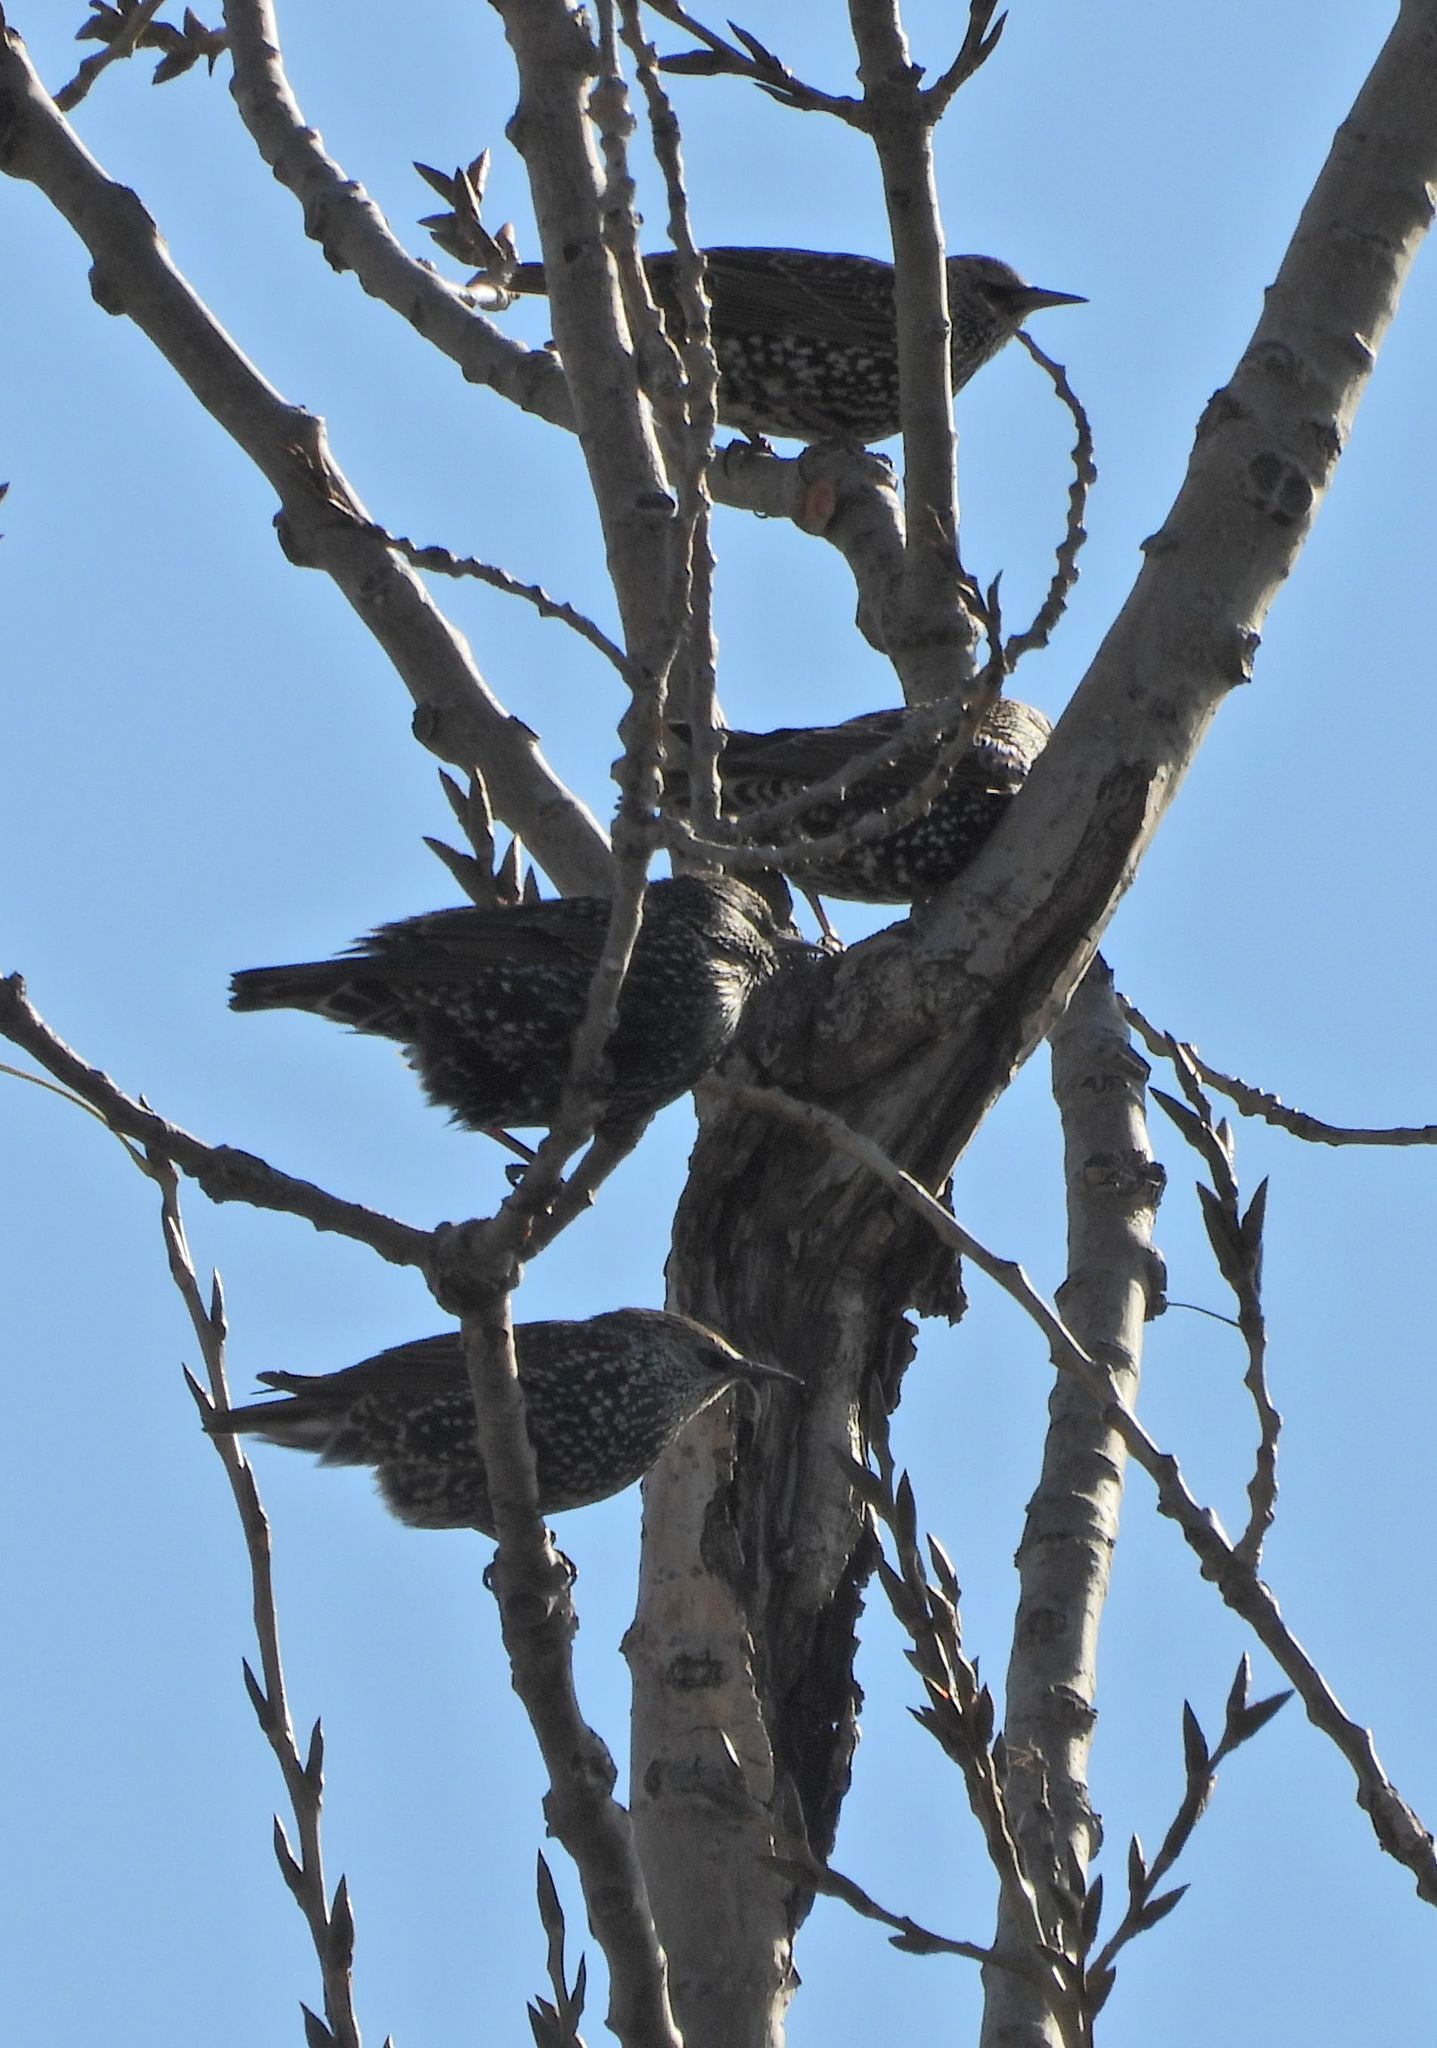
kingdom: Animalia
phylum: Chordata
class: Aves
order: Passeriformes
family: Sturnidae
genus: Sturnus
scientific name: Sturnus vulgaris
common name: Common starling
